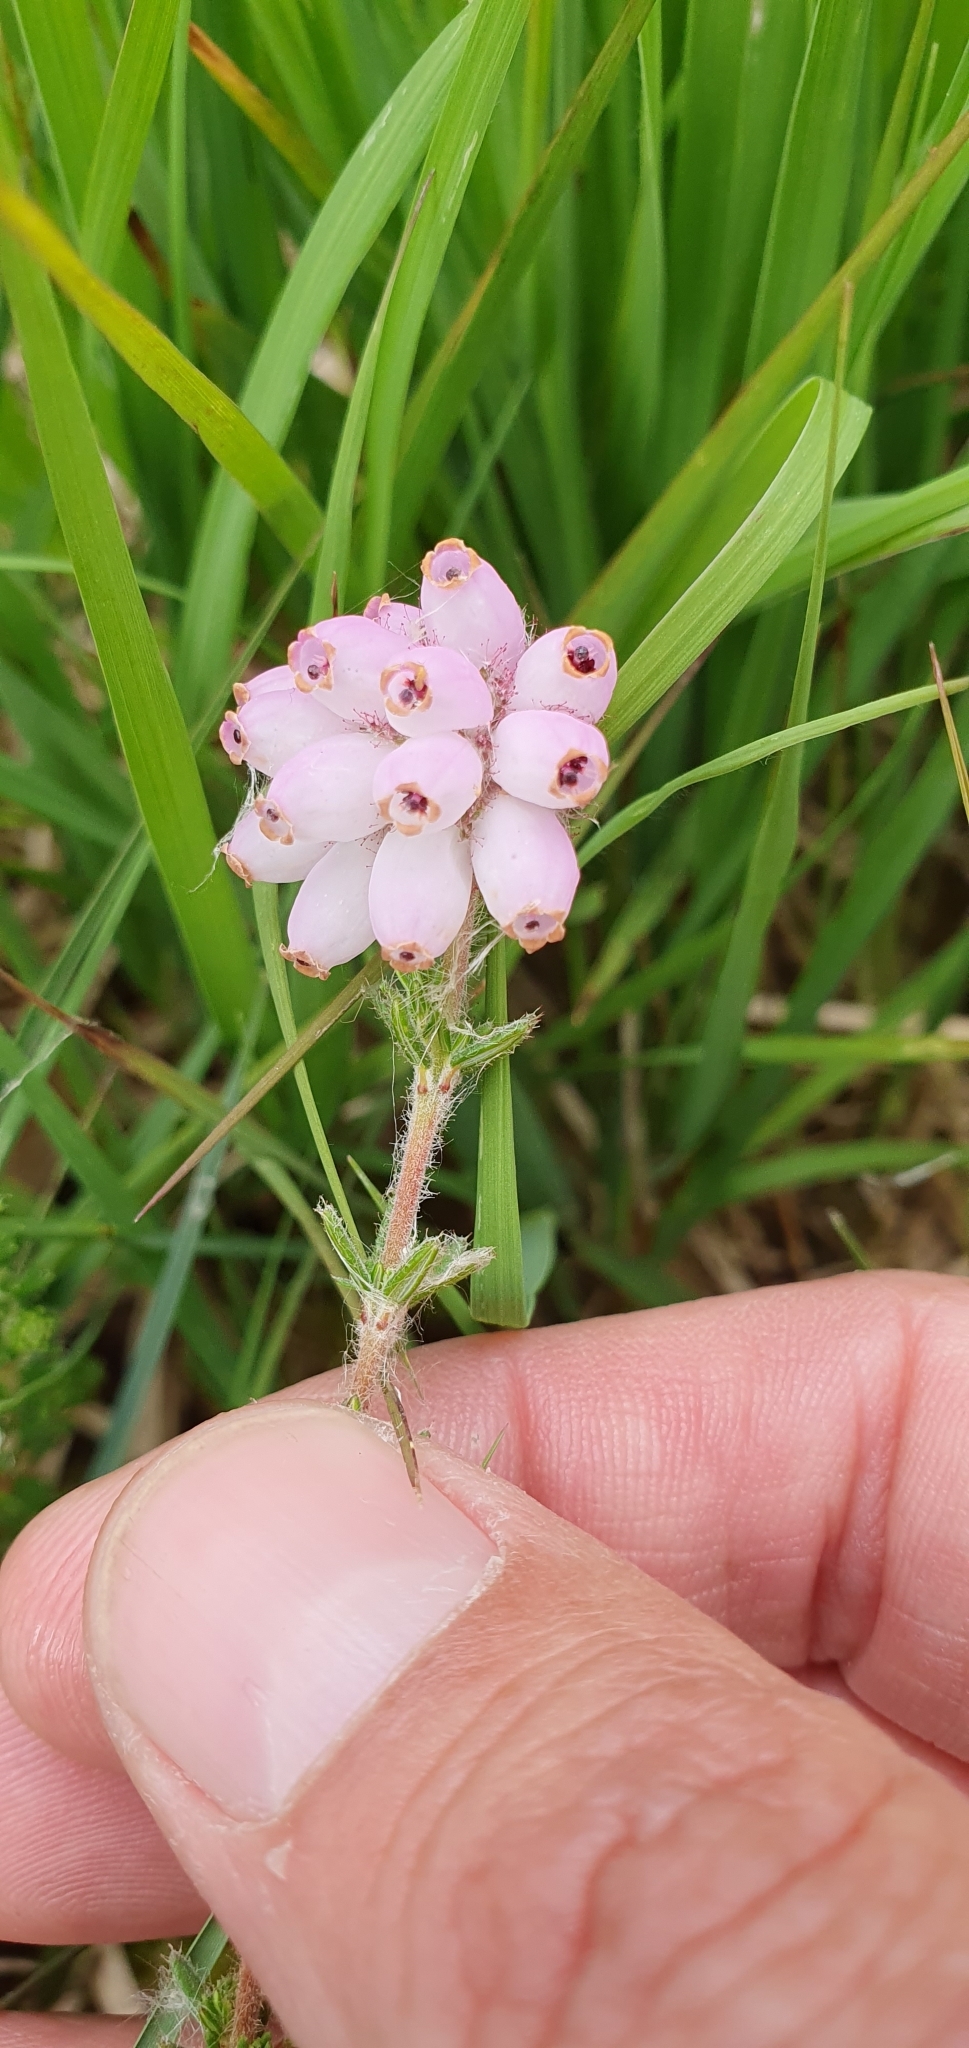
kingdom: Plantae
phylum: Tracheophyta
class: Magnoliopsida
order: Ericales
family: Ericaceae
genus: Erica
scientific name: Erica tetralix
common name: Cross-leaved heath
